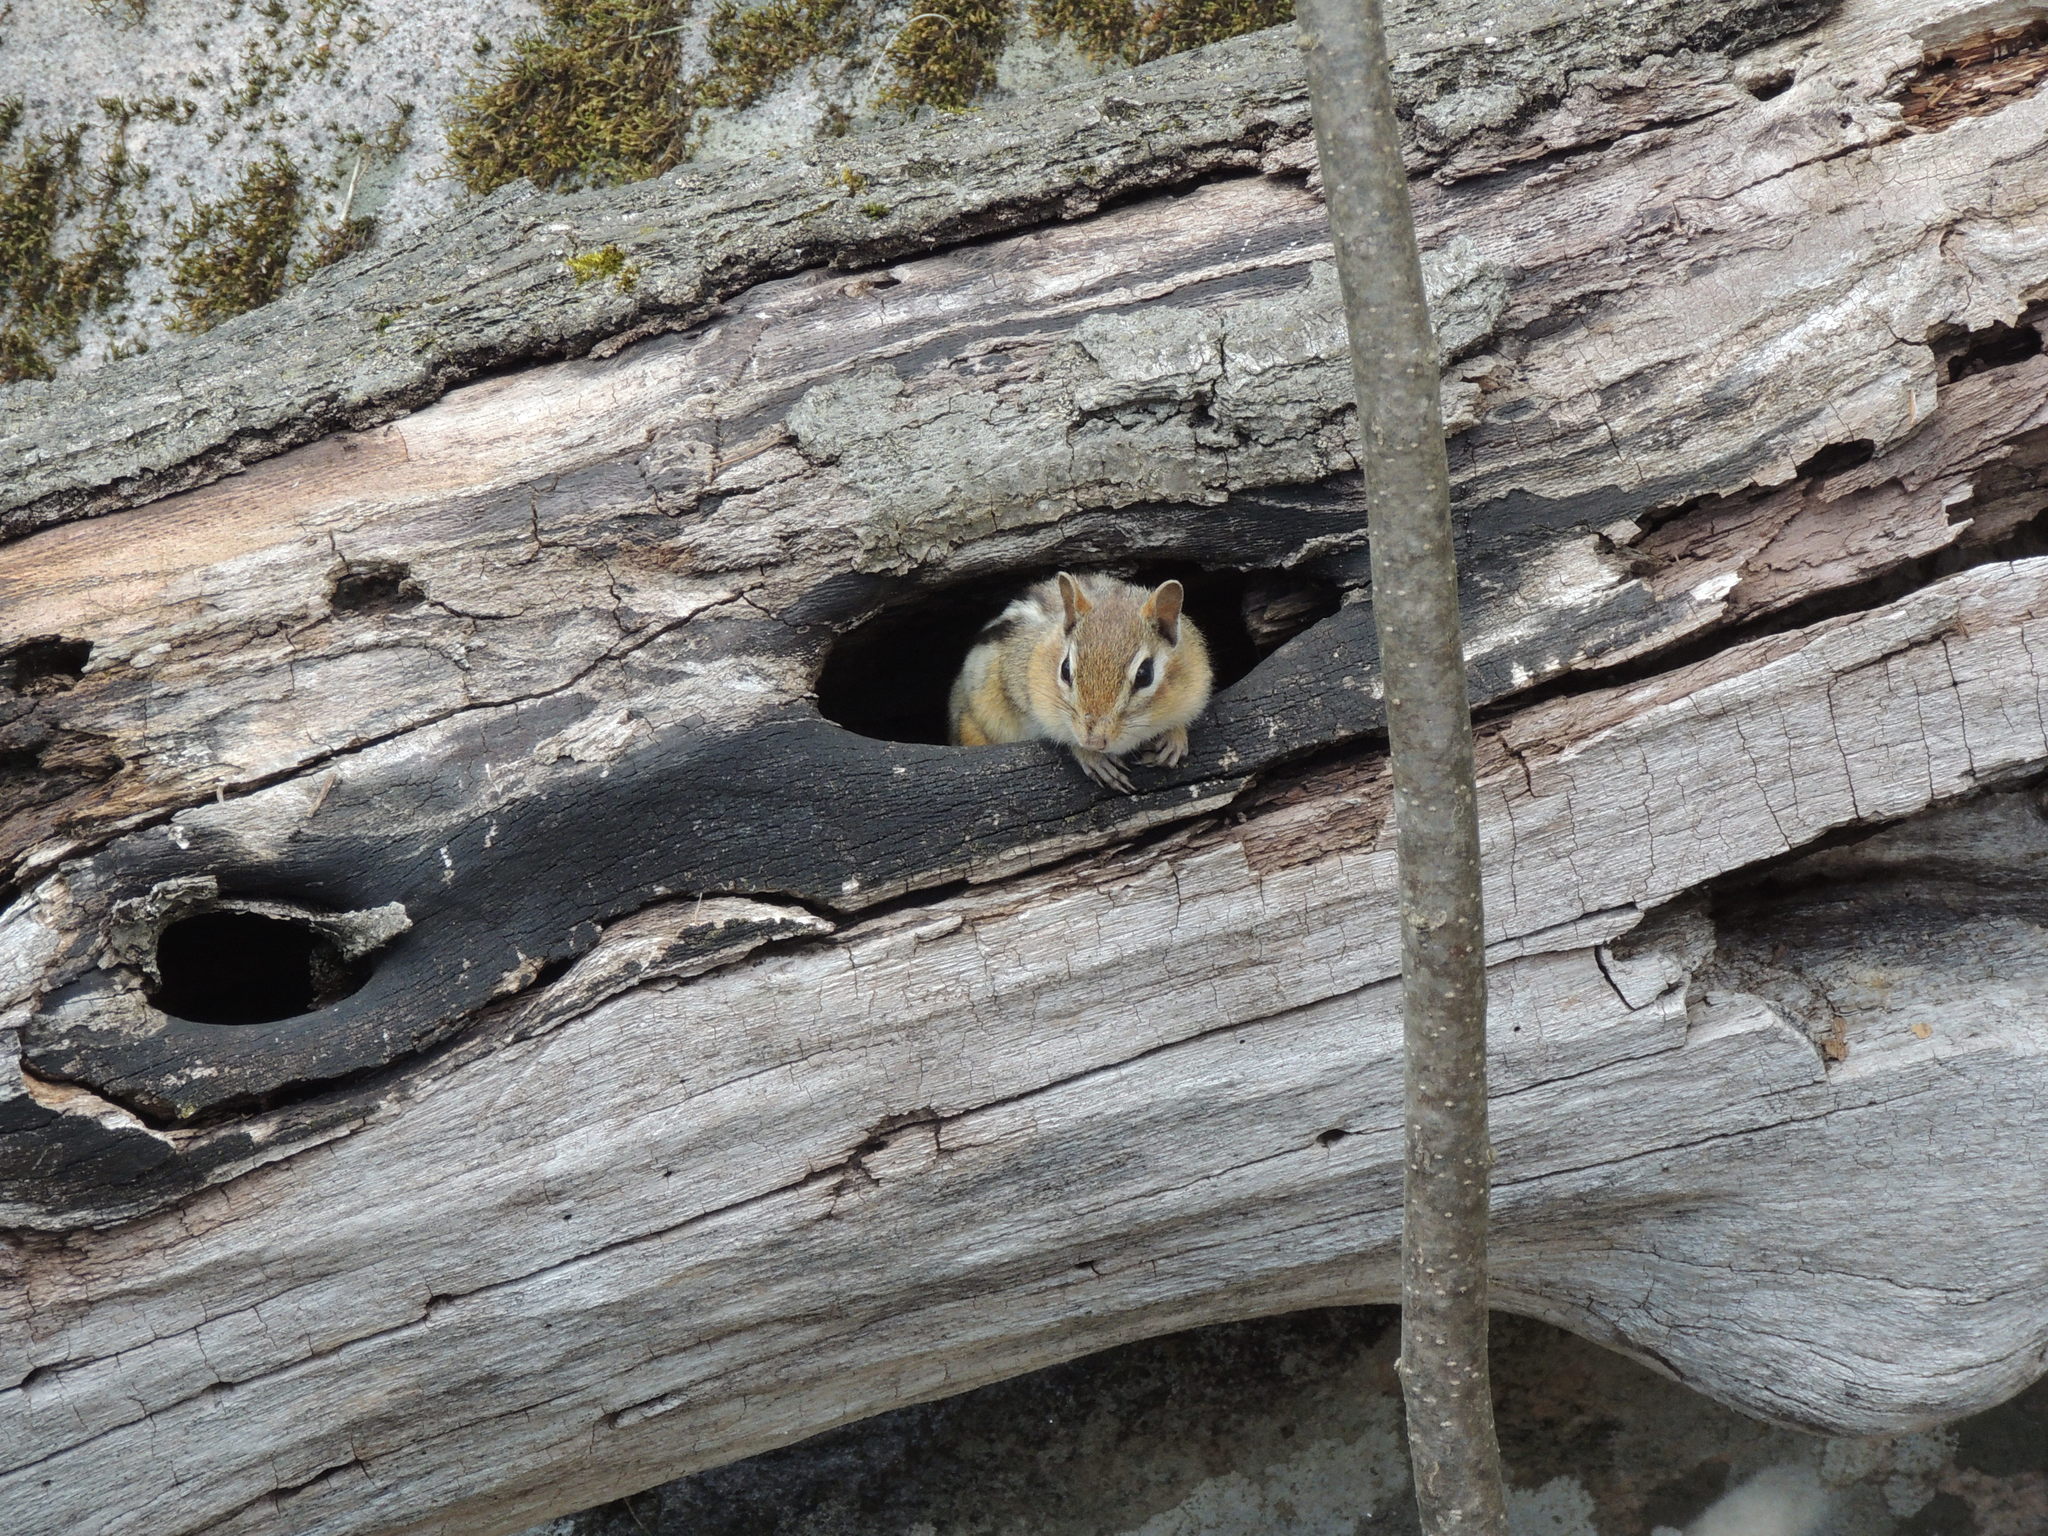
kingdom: Animalia
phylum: Chordata
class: Mammalia
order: Rodentia
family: Sciuridae
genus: Tamias
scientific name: Tamias striatus
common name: Eastern chipmunk
